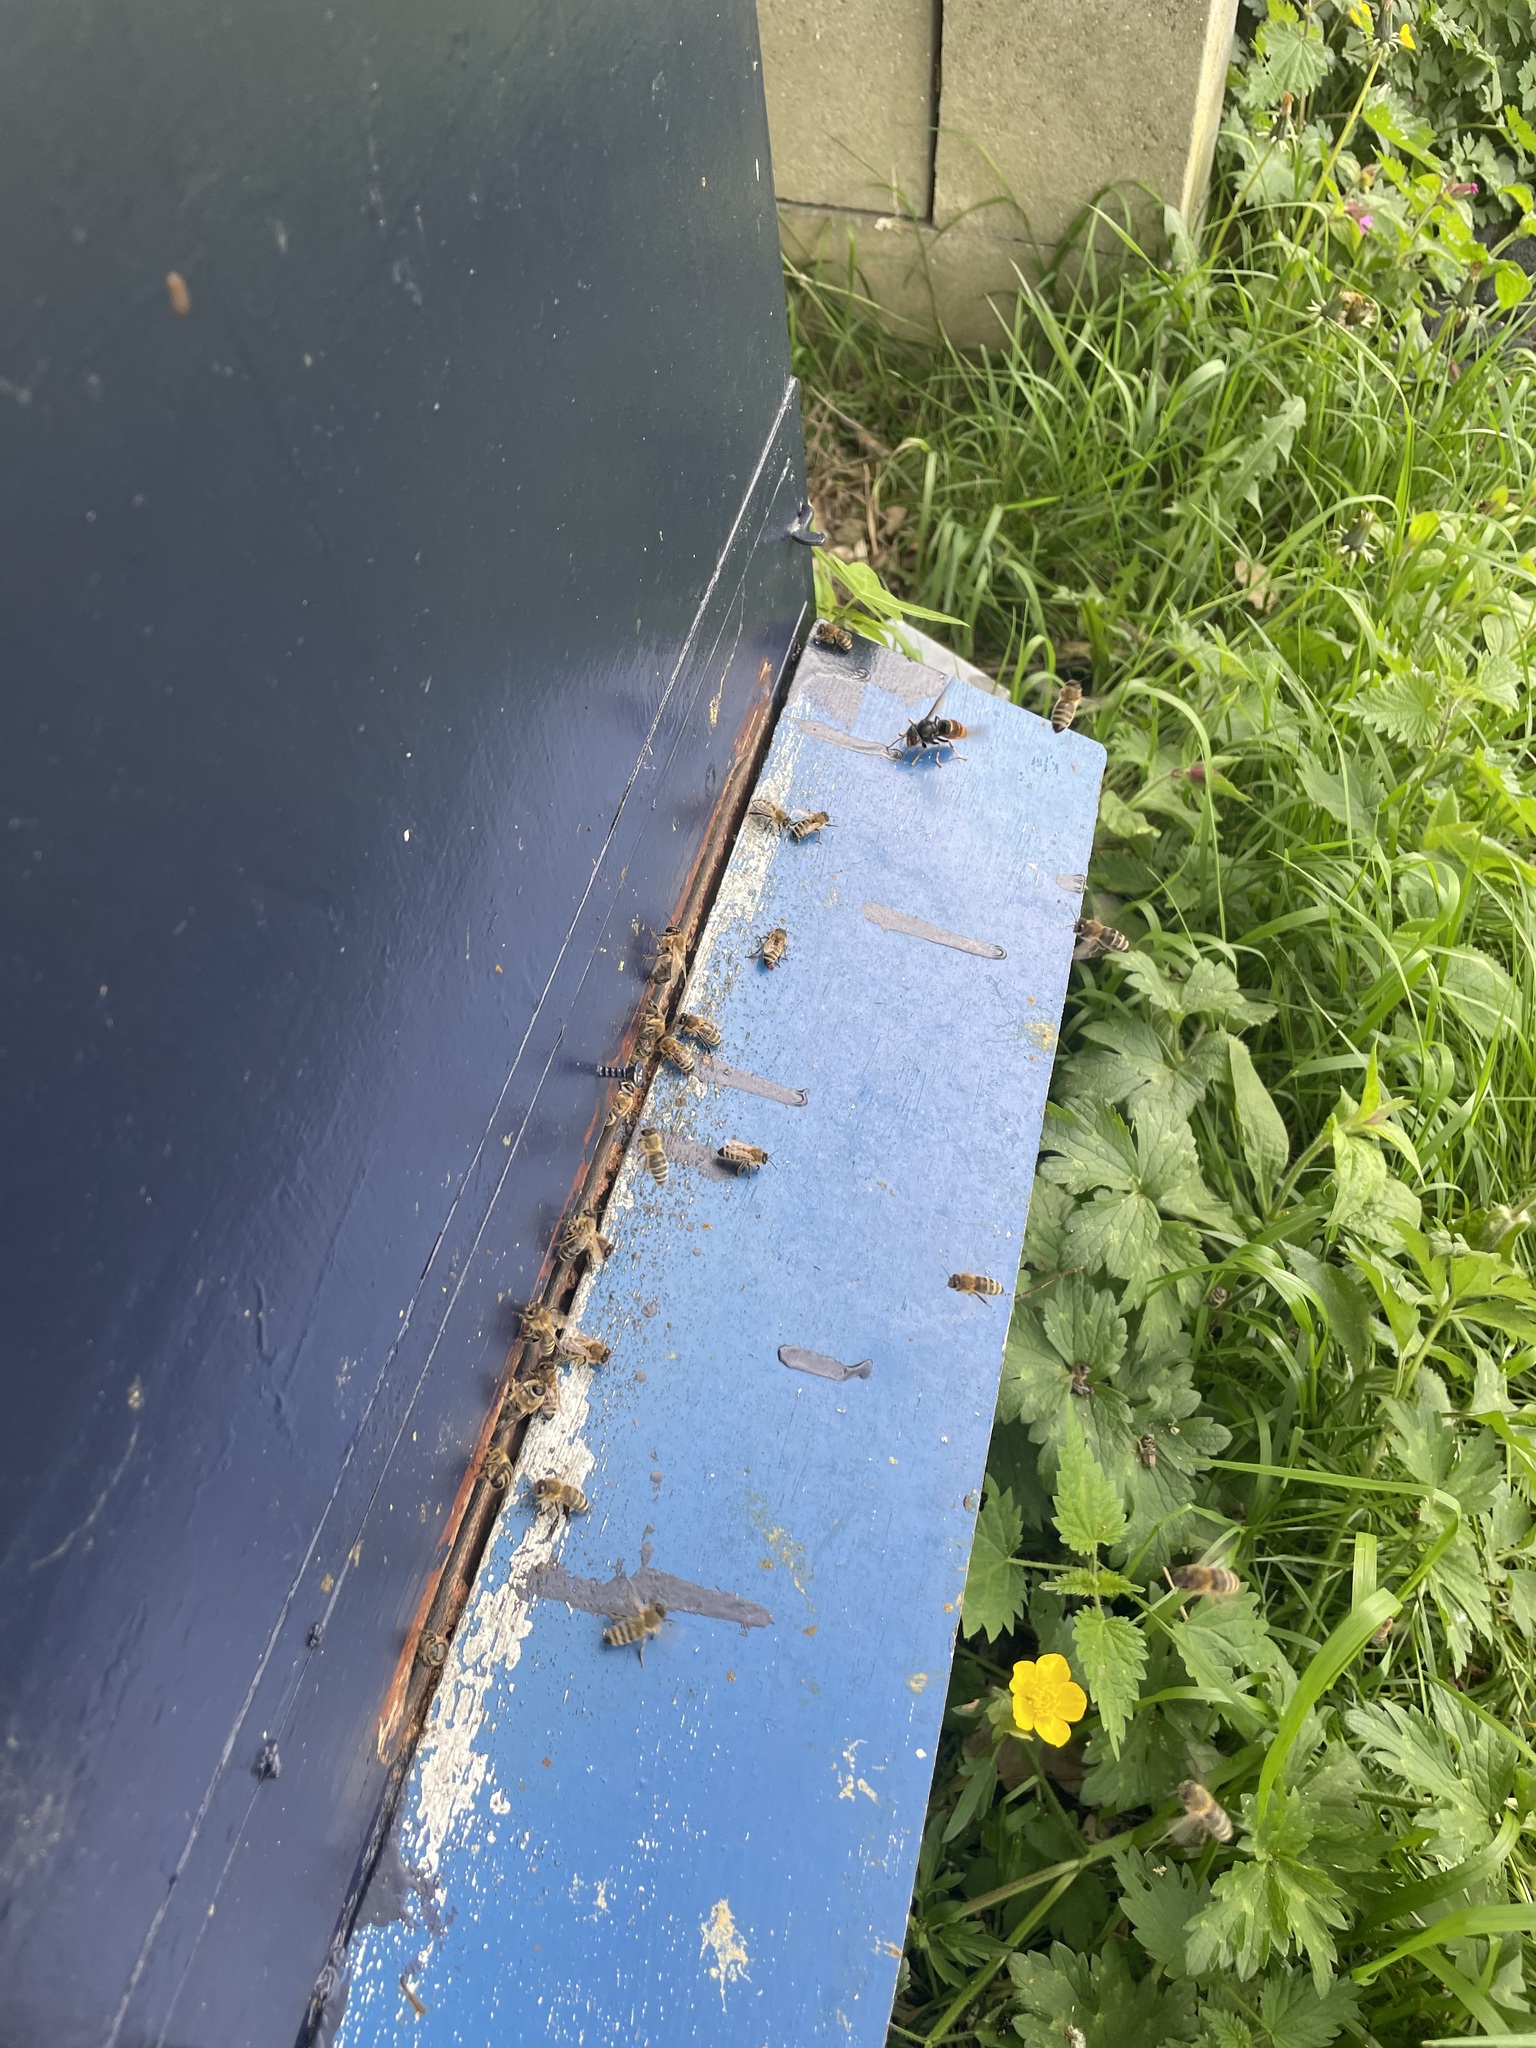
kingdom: Animalia
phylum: Arthropoda
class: Insecta
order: Hymenoptera
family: Vespidae
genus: Vespa
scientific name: Vespa velutina
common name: Asian hornet
